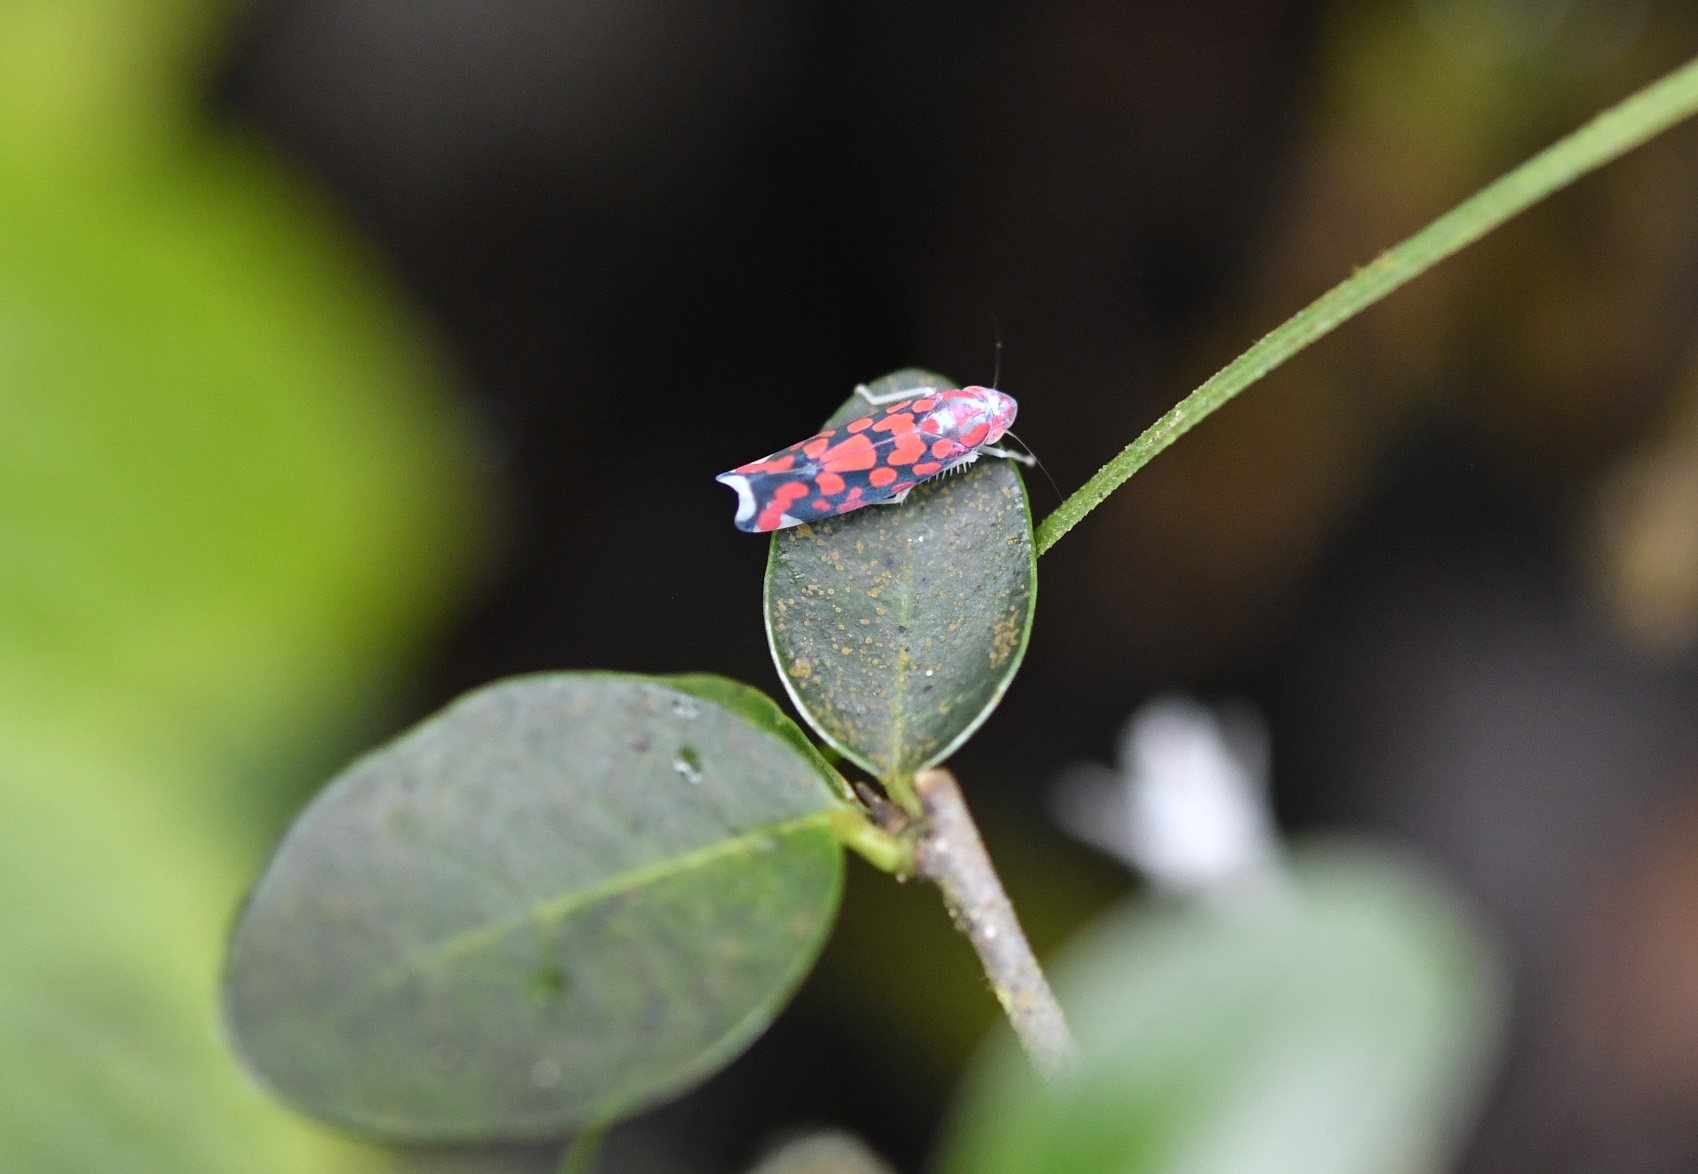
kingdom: Animalia
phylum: Arthropoda
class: Insecta
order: Hemiptera
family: Cicadellidae
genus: Ladoffa
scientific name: Ladoffa lentiginosa
